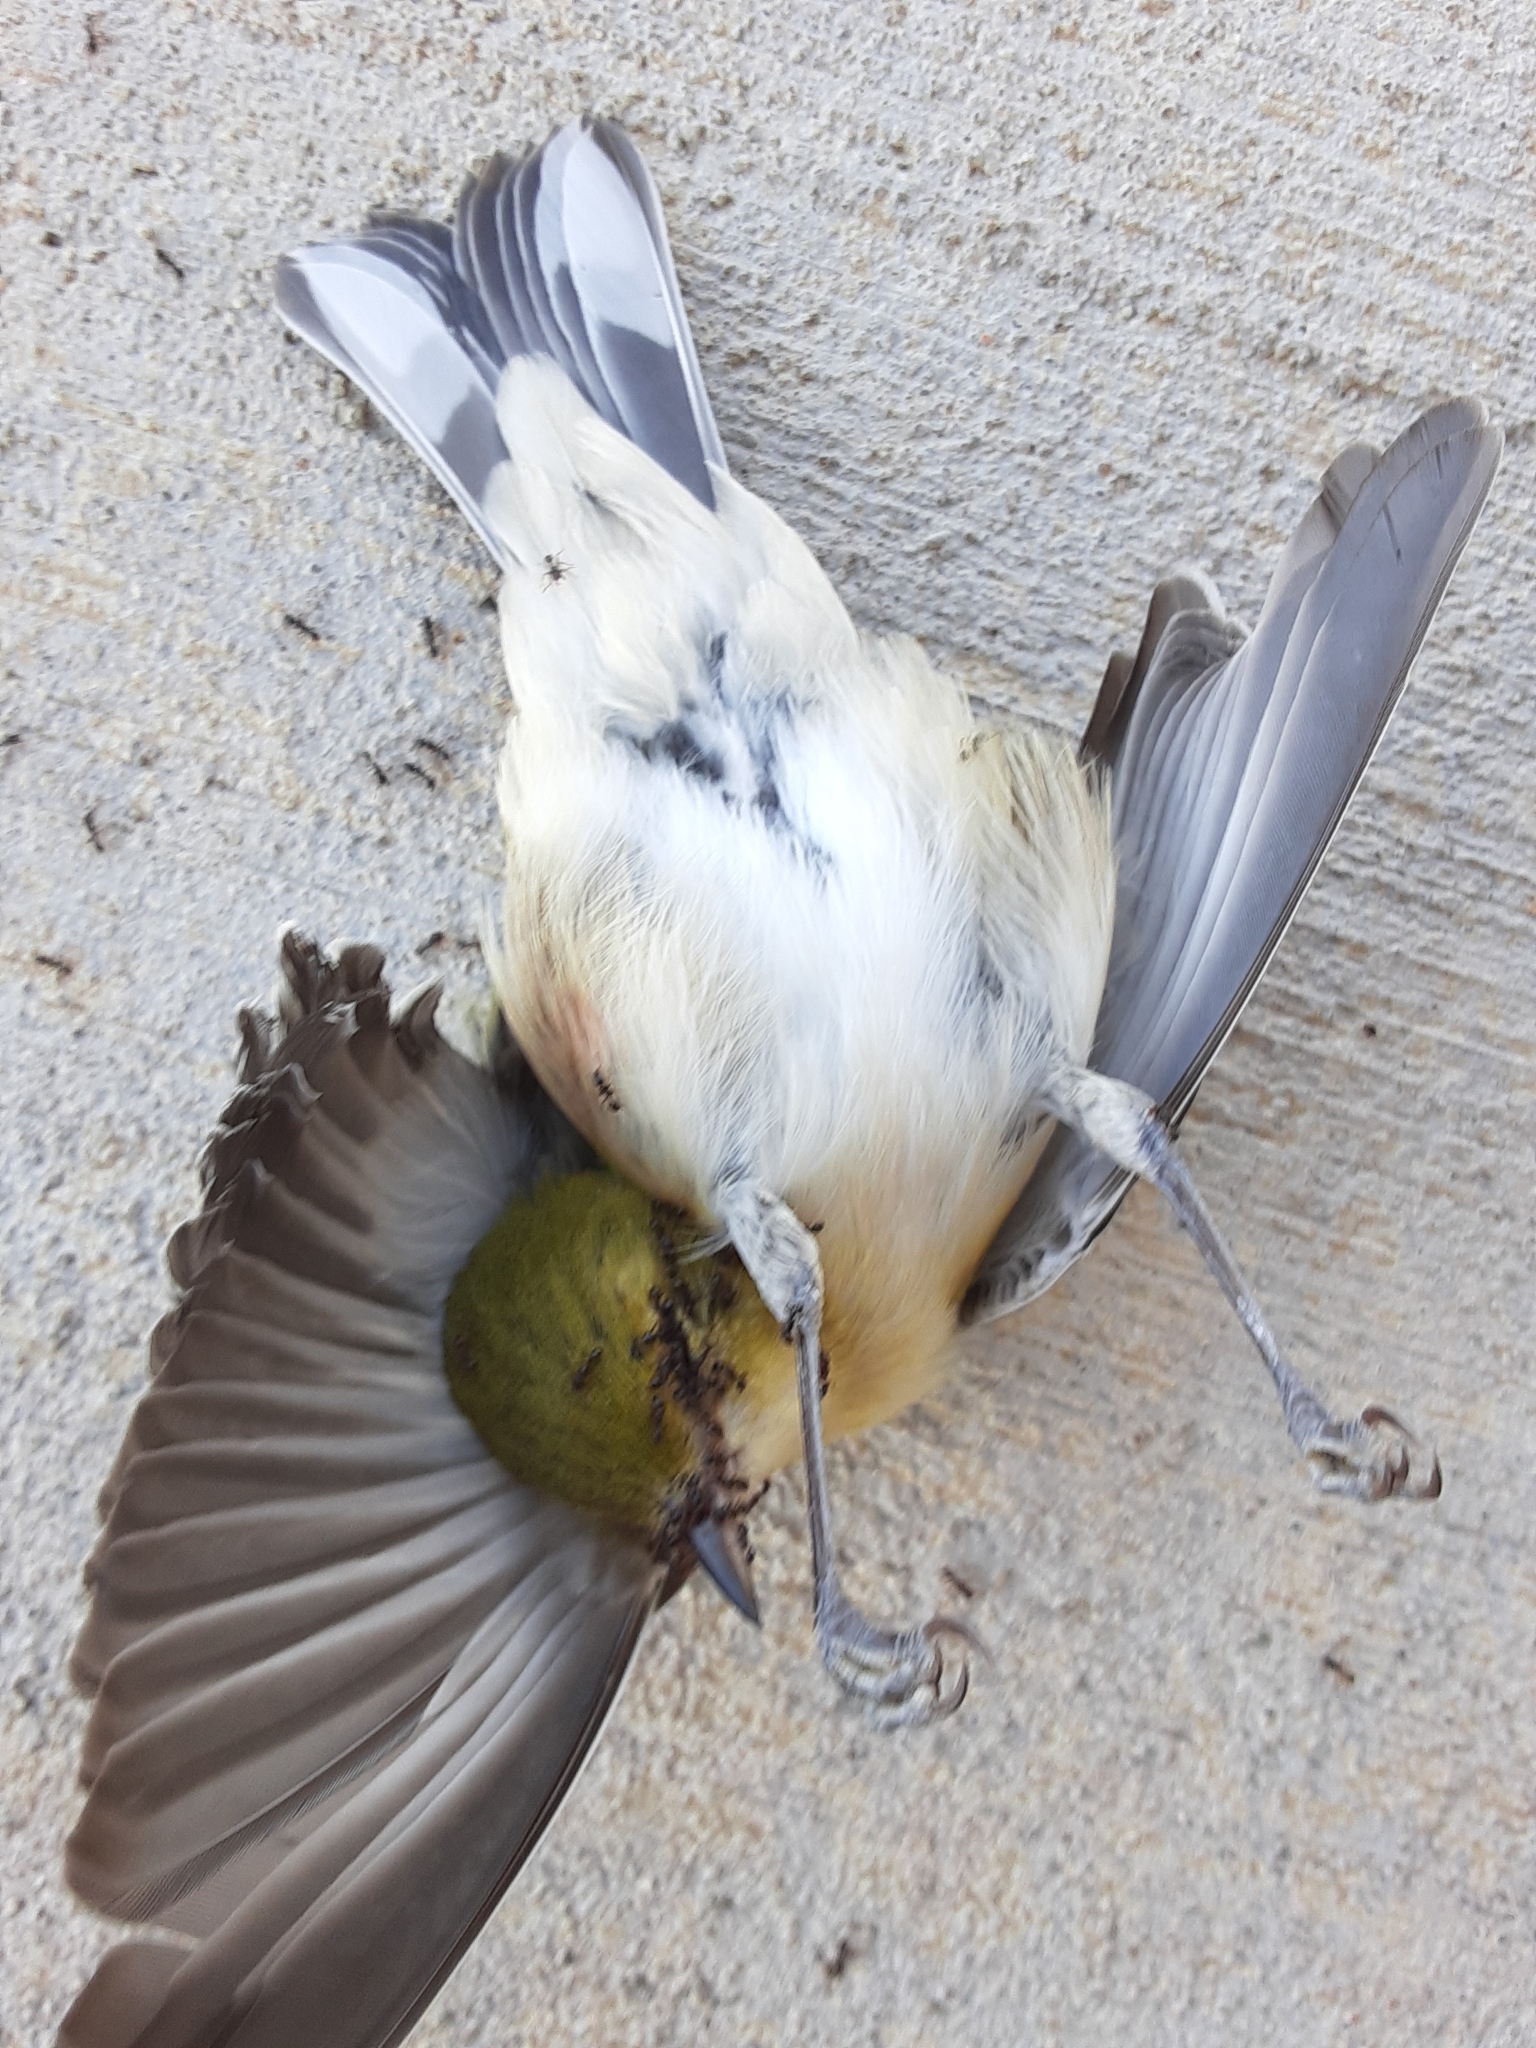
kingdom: Animalia
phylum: Chordata
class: Aves
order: Passeriformes
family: Parulidae
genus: Setophaga
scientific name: Setophaga castanea
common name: Bay-breasted warbler
